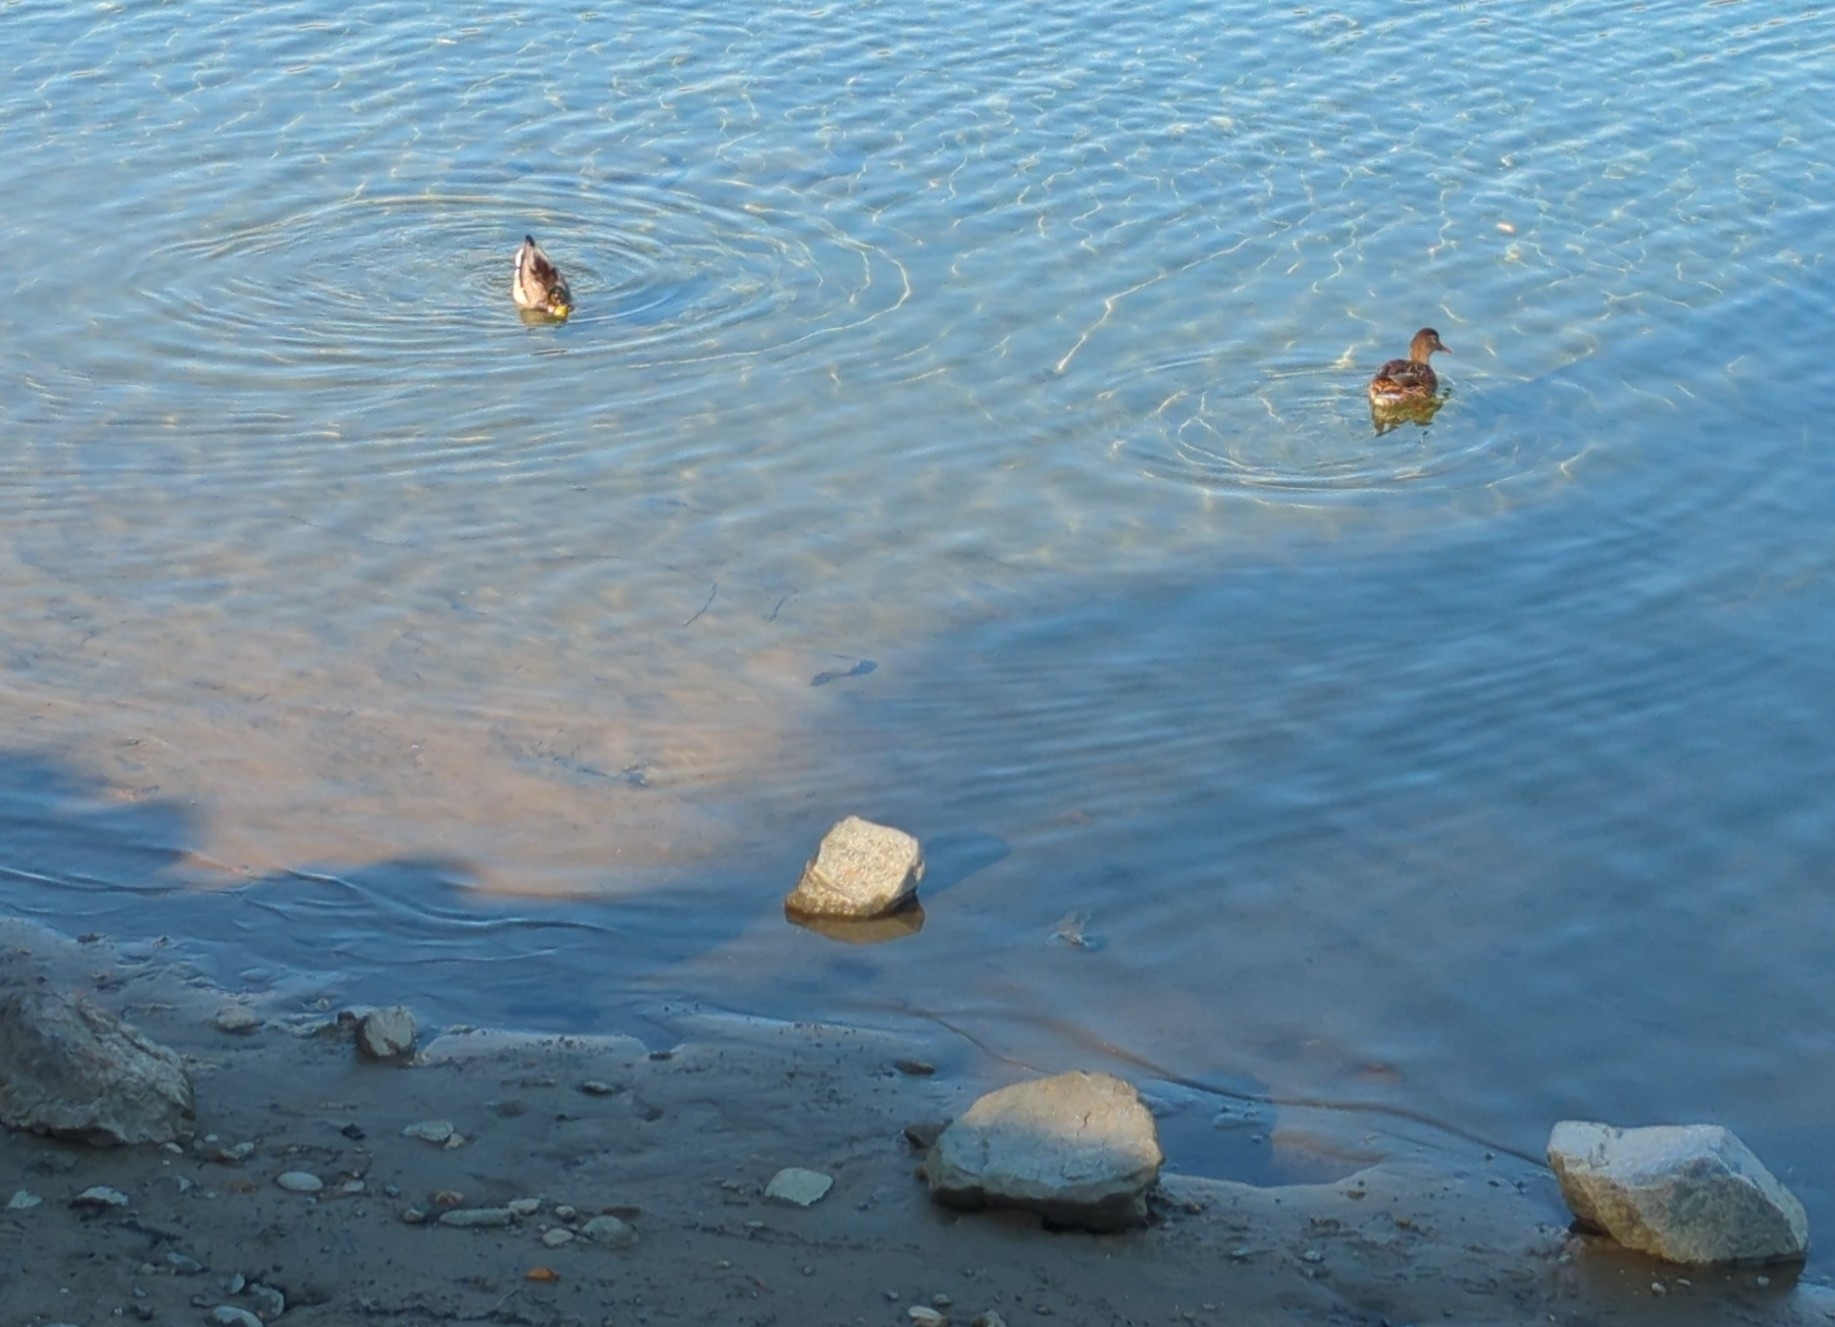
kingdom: Animalia
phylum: Chordata
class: Aves
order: Anseriformes
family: Anatidae
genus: Anas
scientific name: Anas platyrhynchos
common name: Mallard
